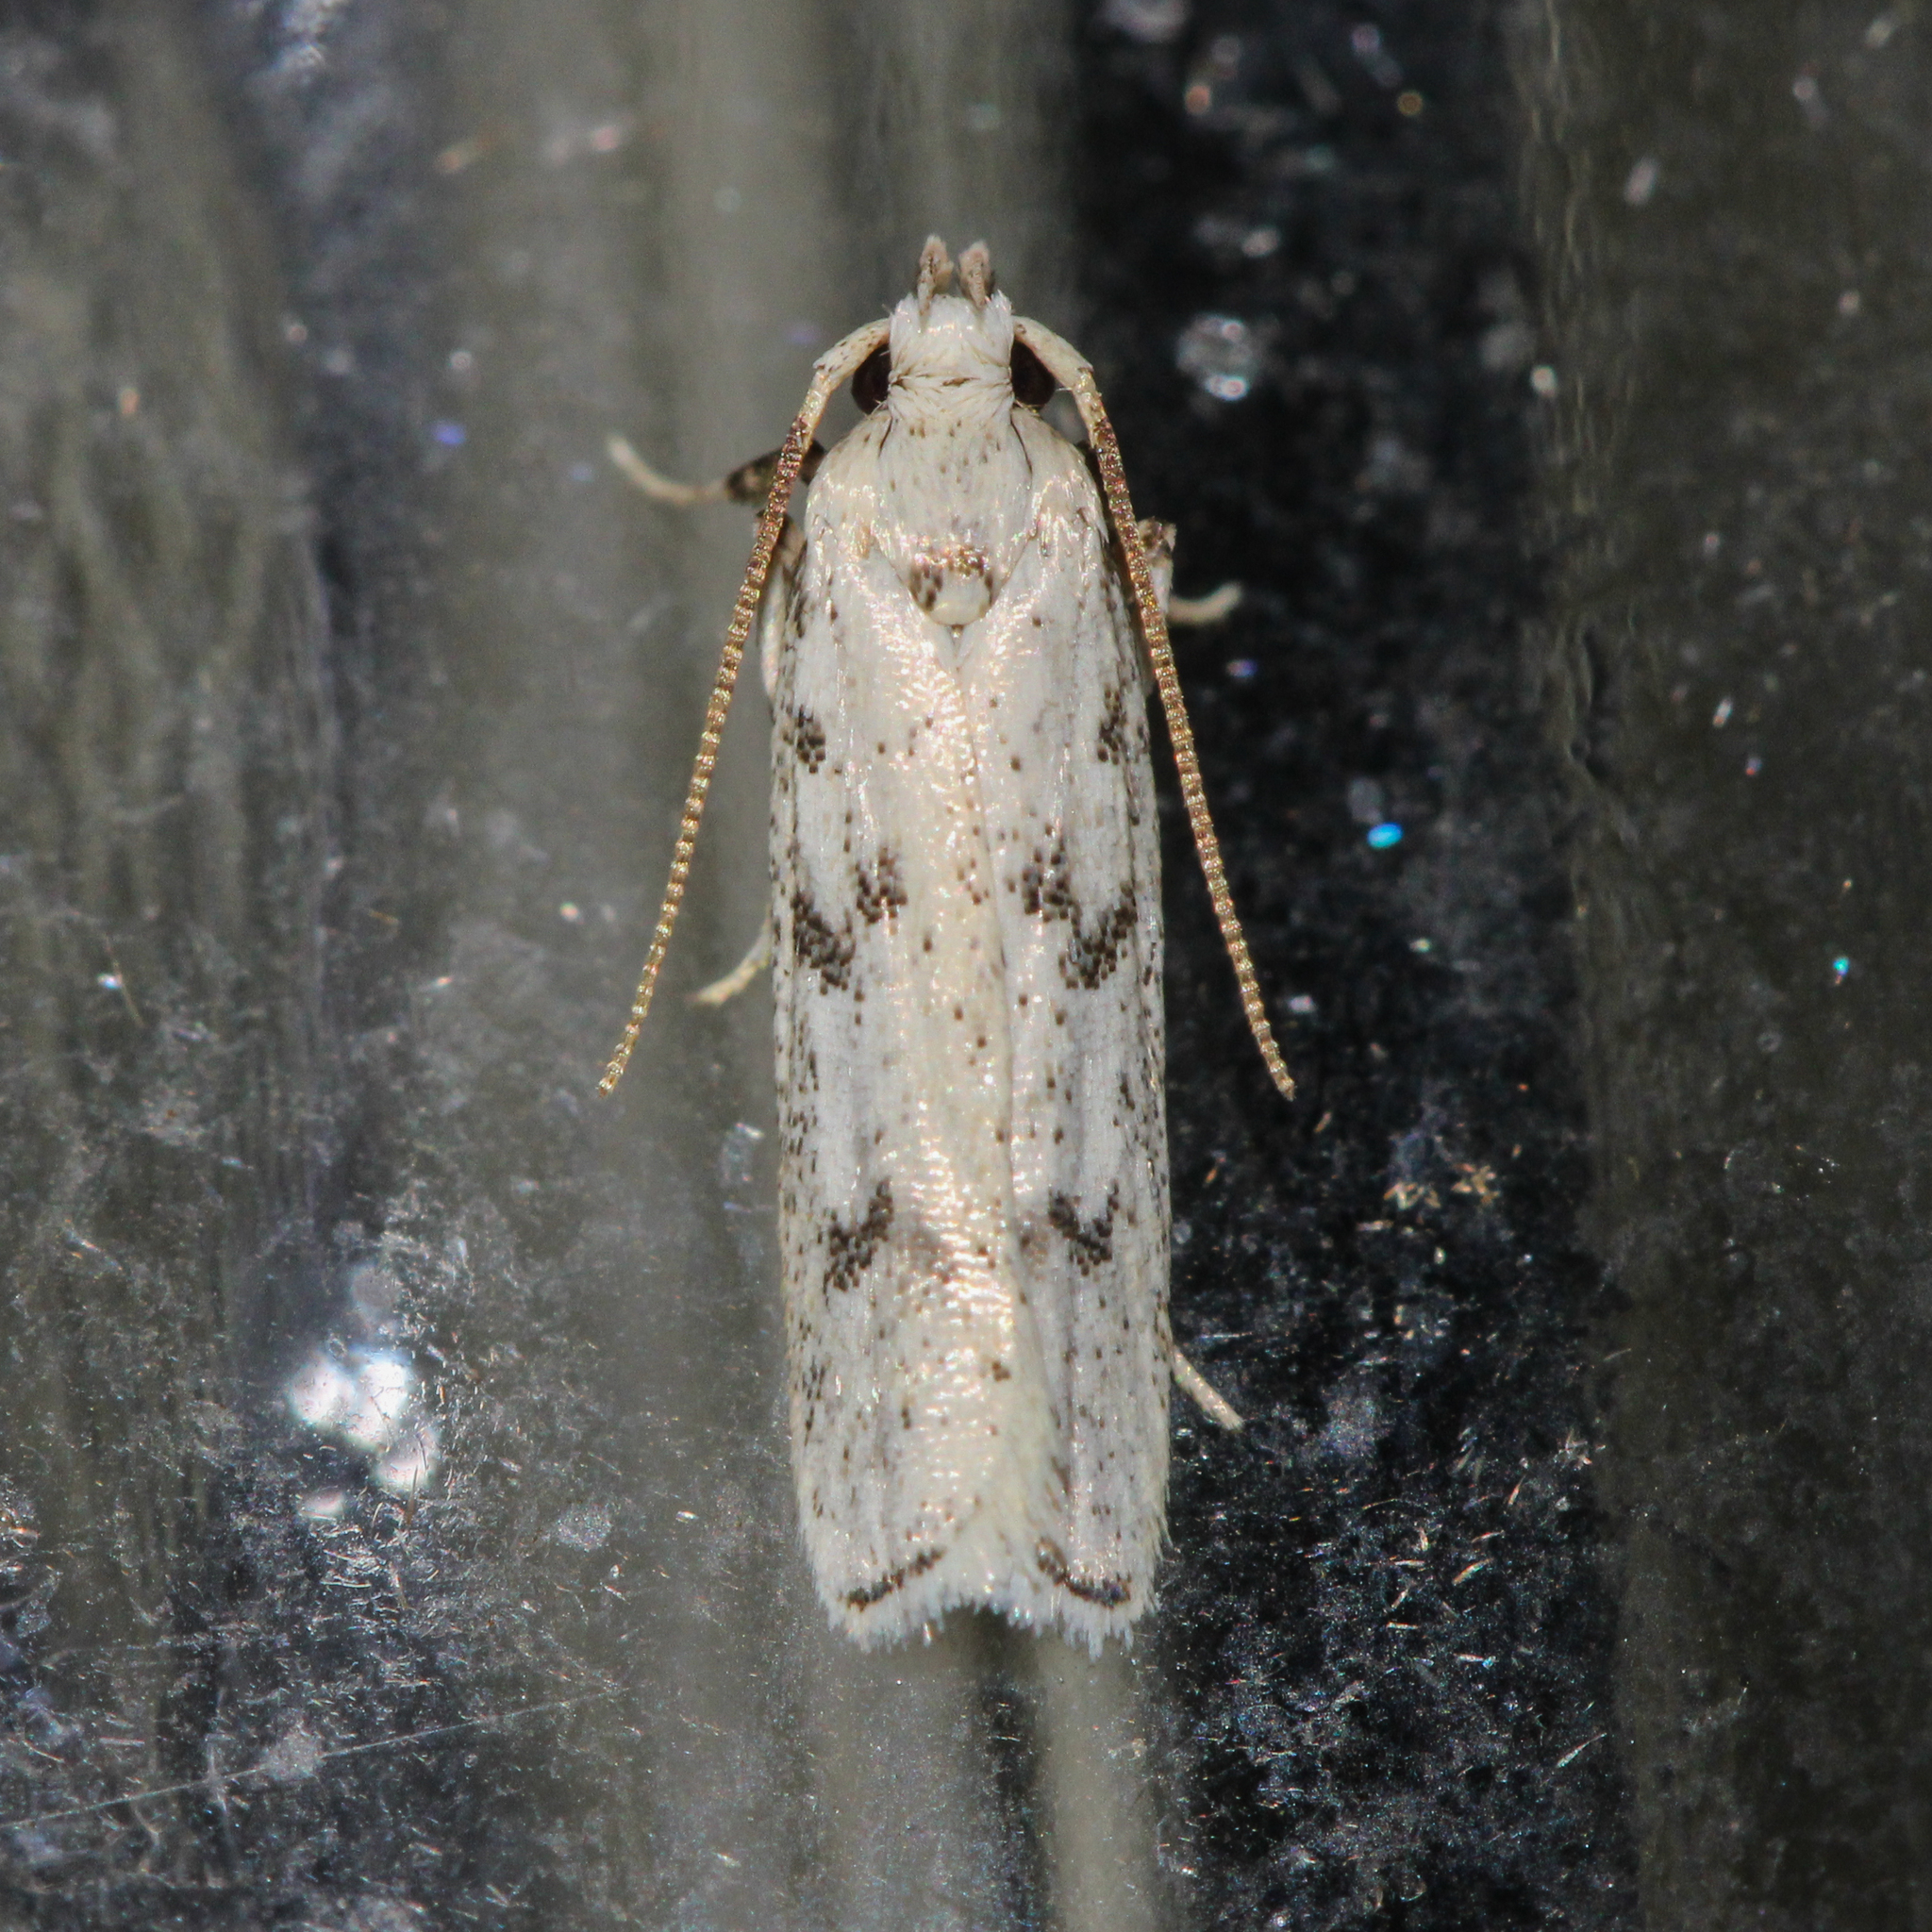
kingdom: Animalia
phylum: Arthropoda
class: Insecta
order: Lepidoptera
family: Autostichidae
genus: Glyphidocera
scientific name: Glyphidocera lactiflosella
